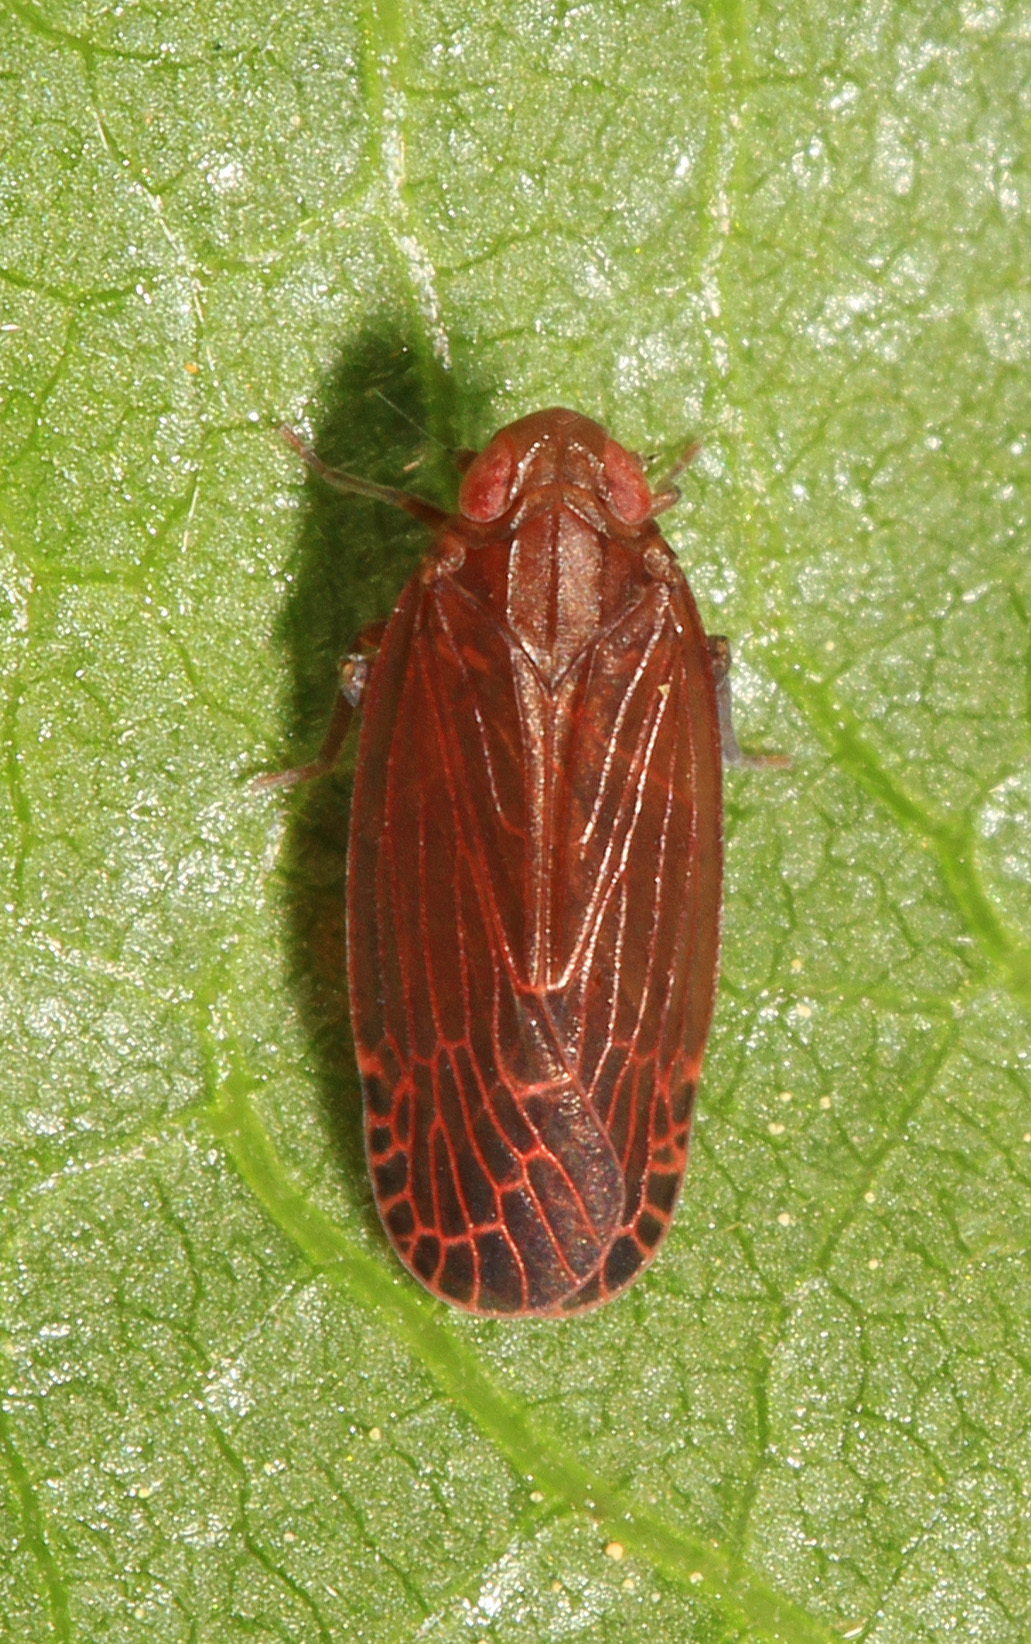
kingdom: Animalia
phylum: Arthropoda
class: Insecta
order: Hemiptera
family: Achilidae
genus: Synecdoche
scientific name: Synecdoche rubella
